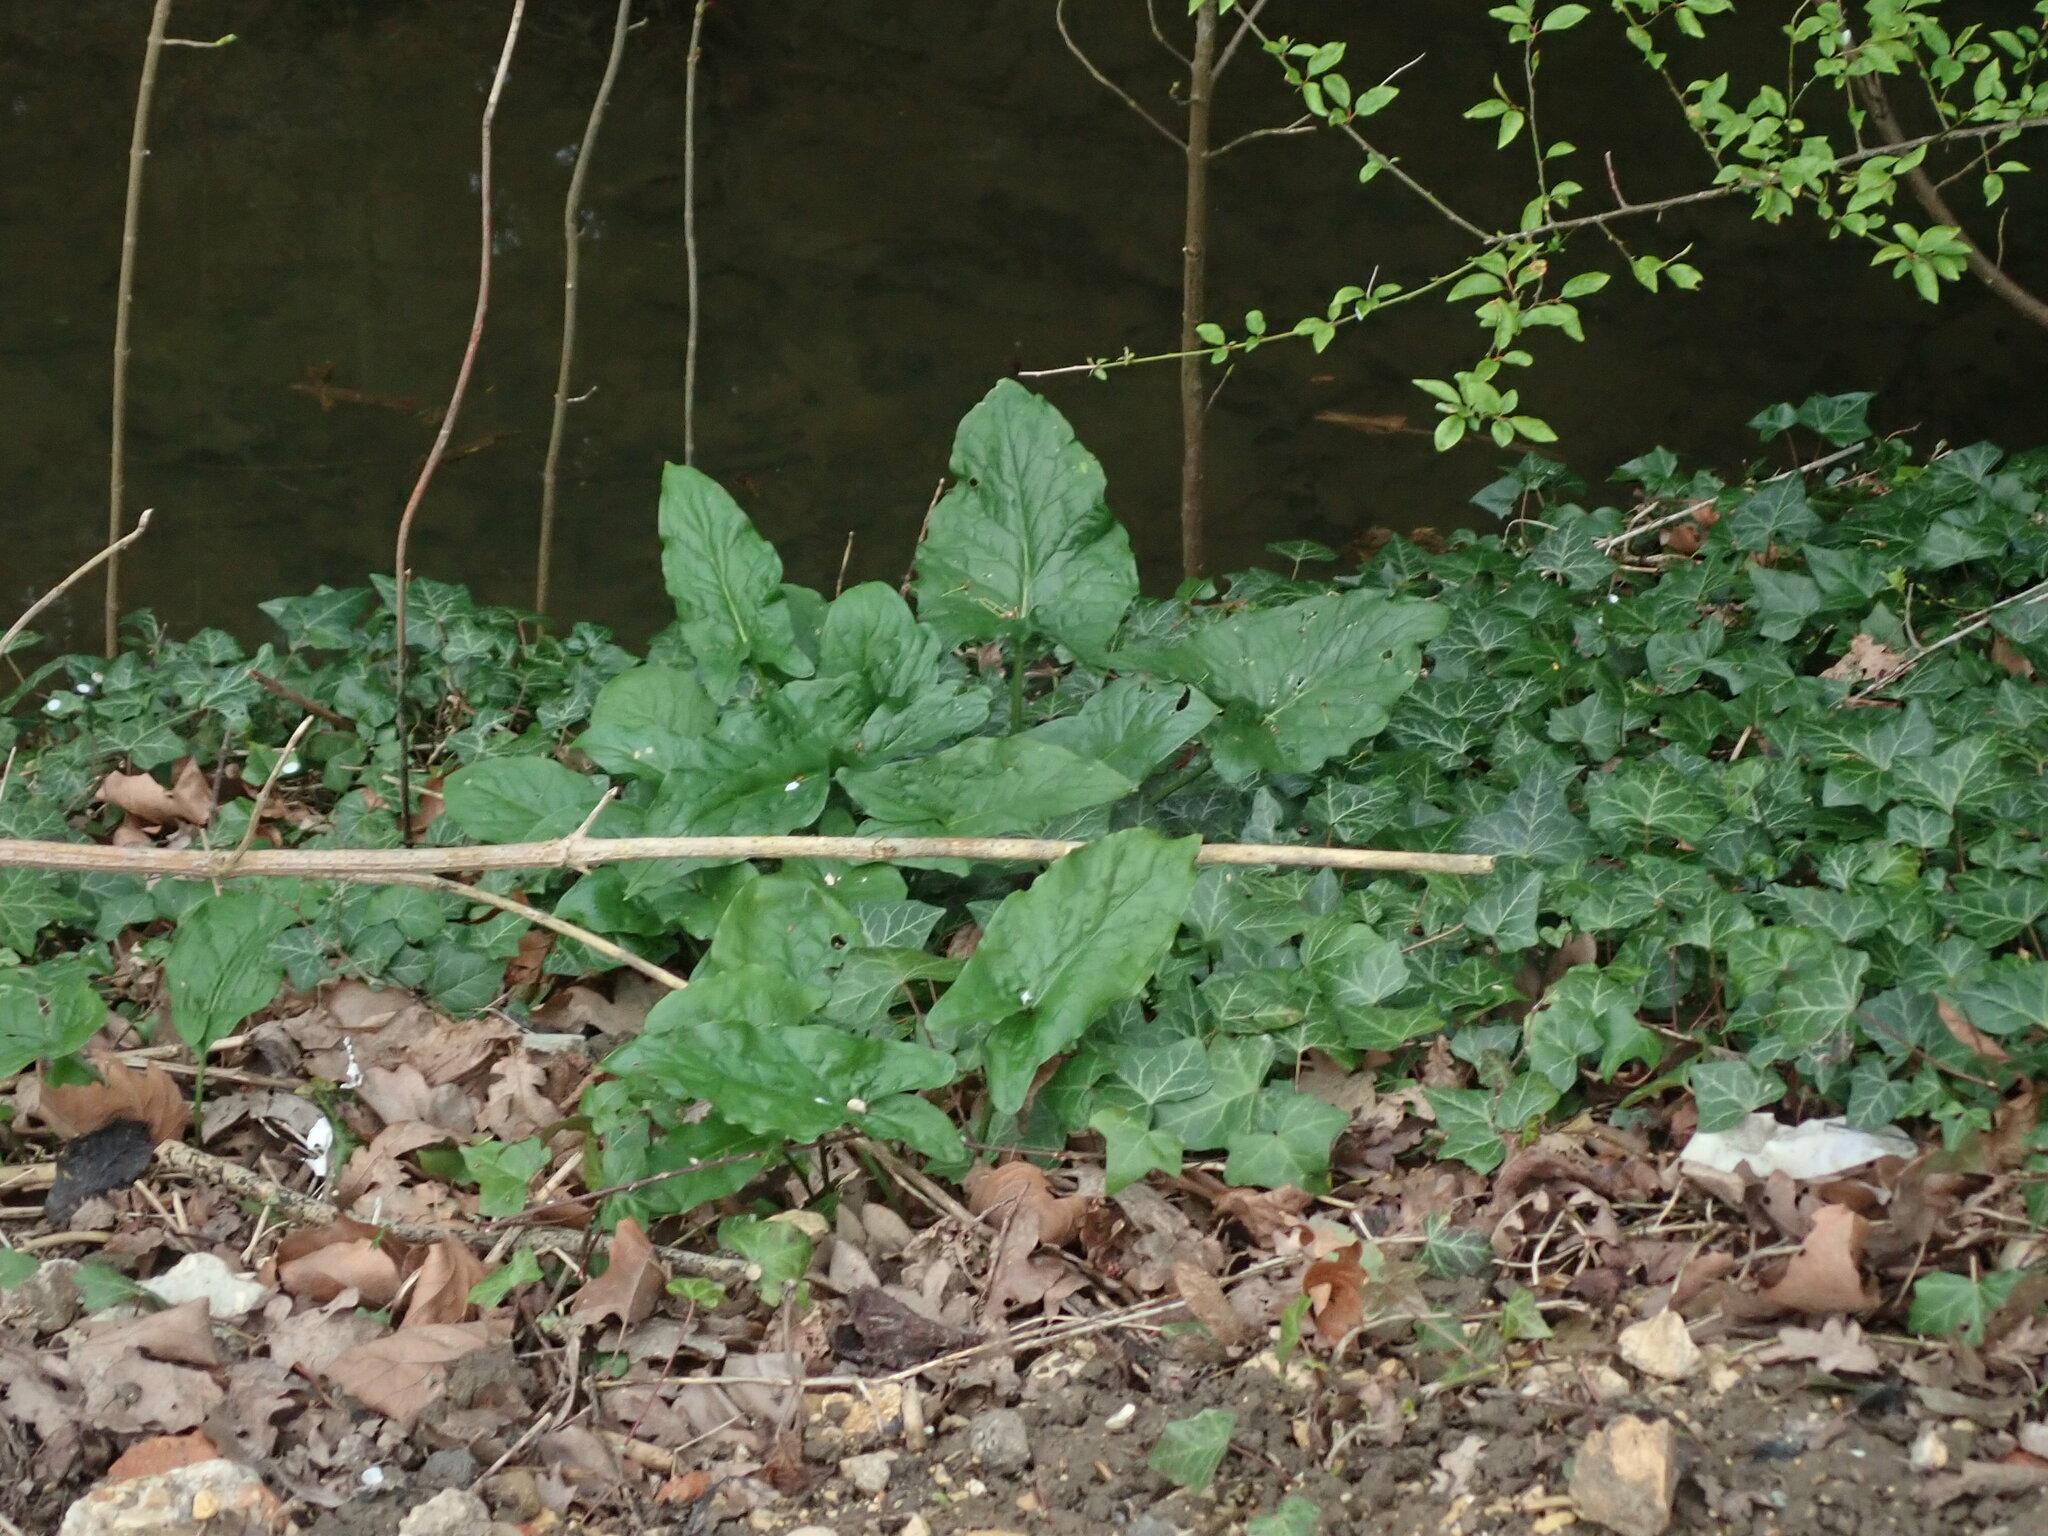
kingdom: Plantae
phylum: Tracheophyta
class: Liliopsida
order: Alismatales
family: Araceae
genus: Arum
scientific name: Arum maculatum
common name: Lords-and-ladies
